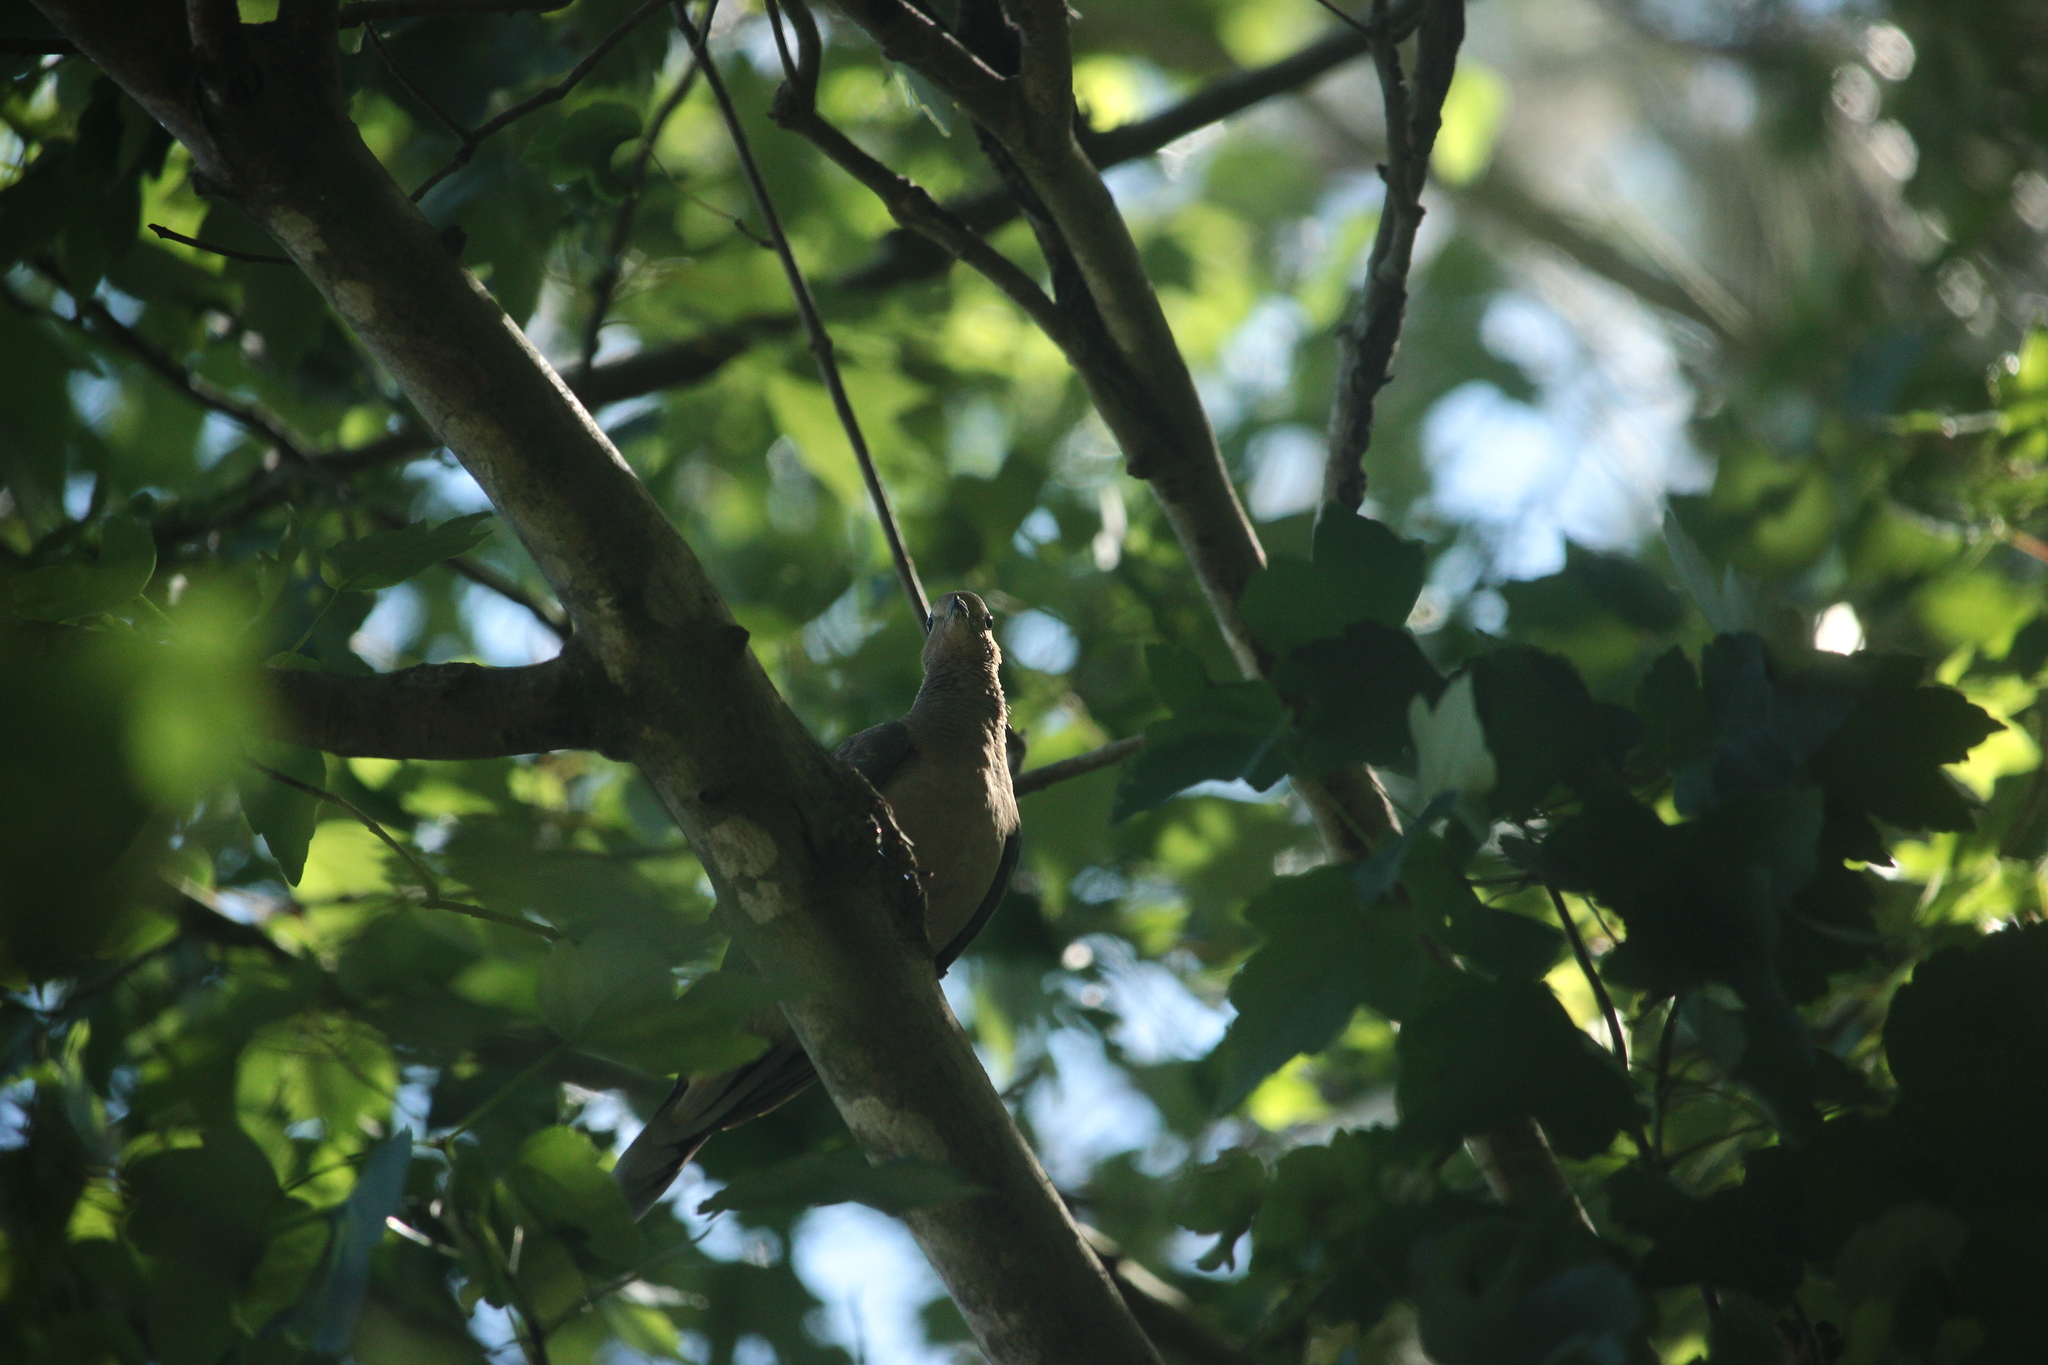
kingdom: Animalia
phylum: Chordata
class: Aves
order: Columbiformes
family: Columbidae
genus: Zenaida
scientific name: Zenaida macroura
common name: Mourning dove
